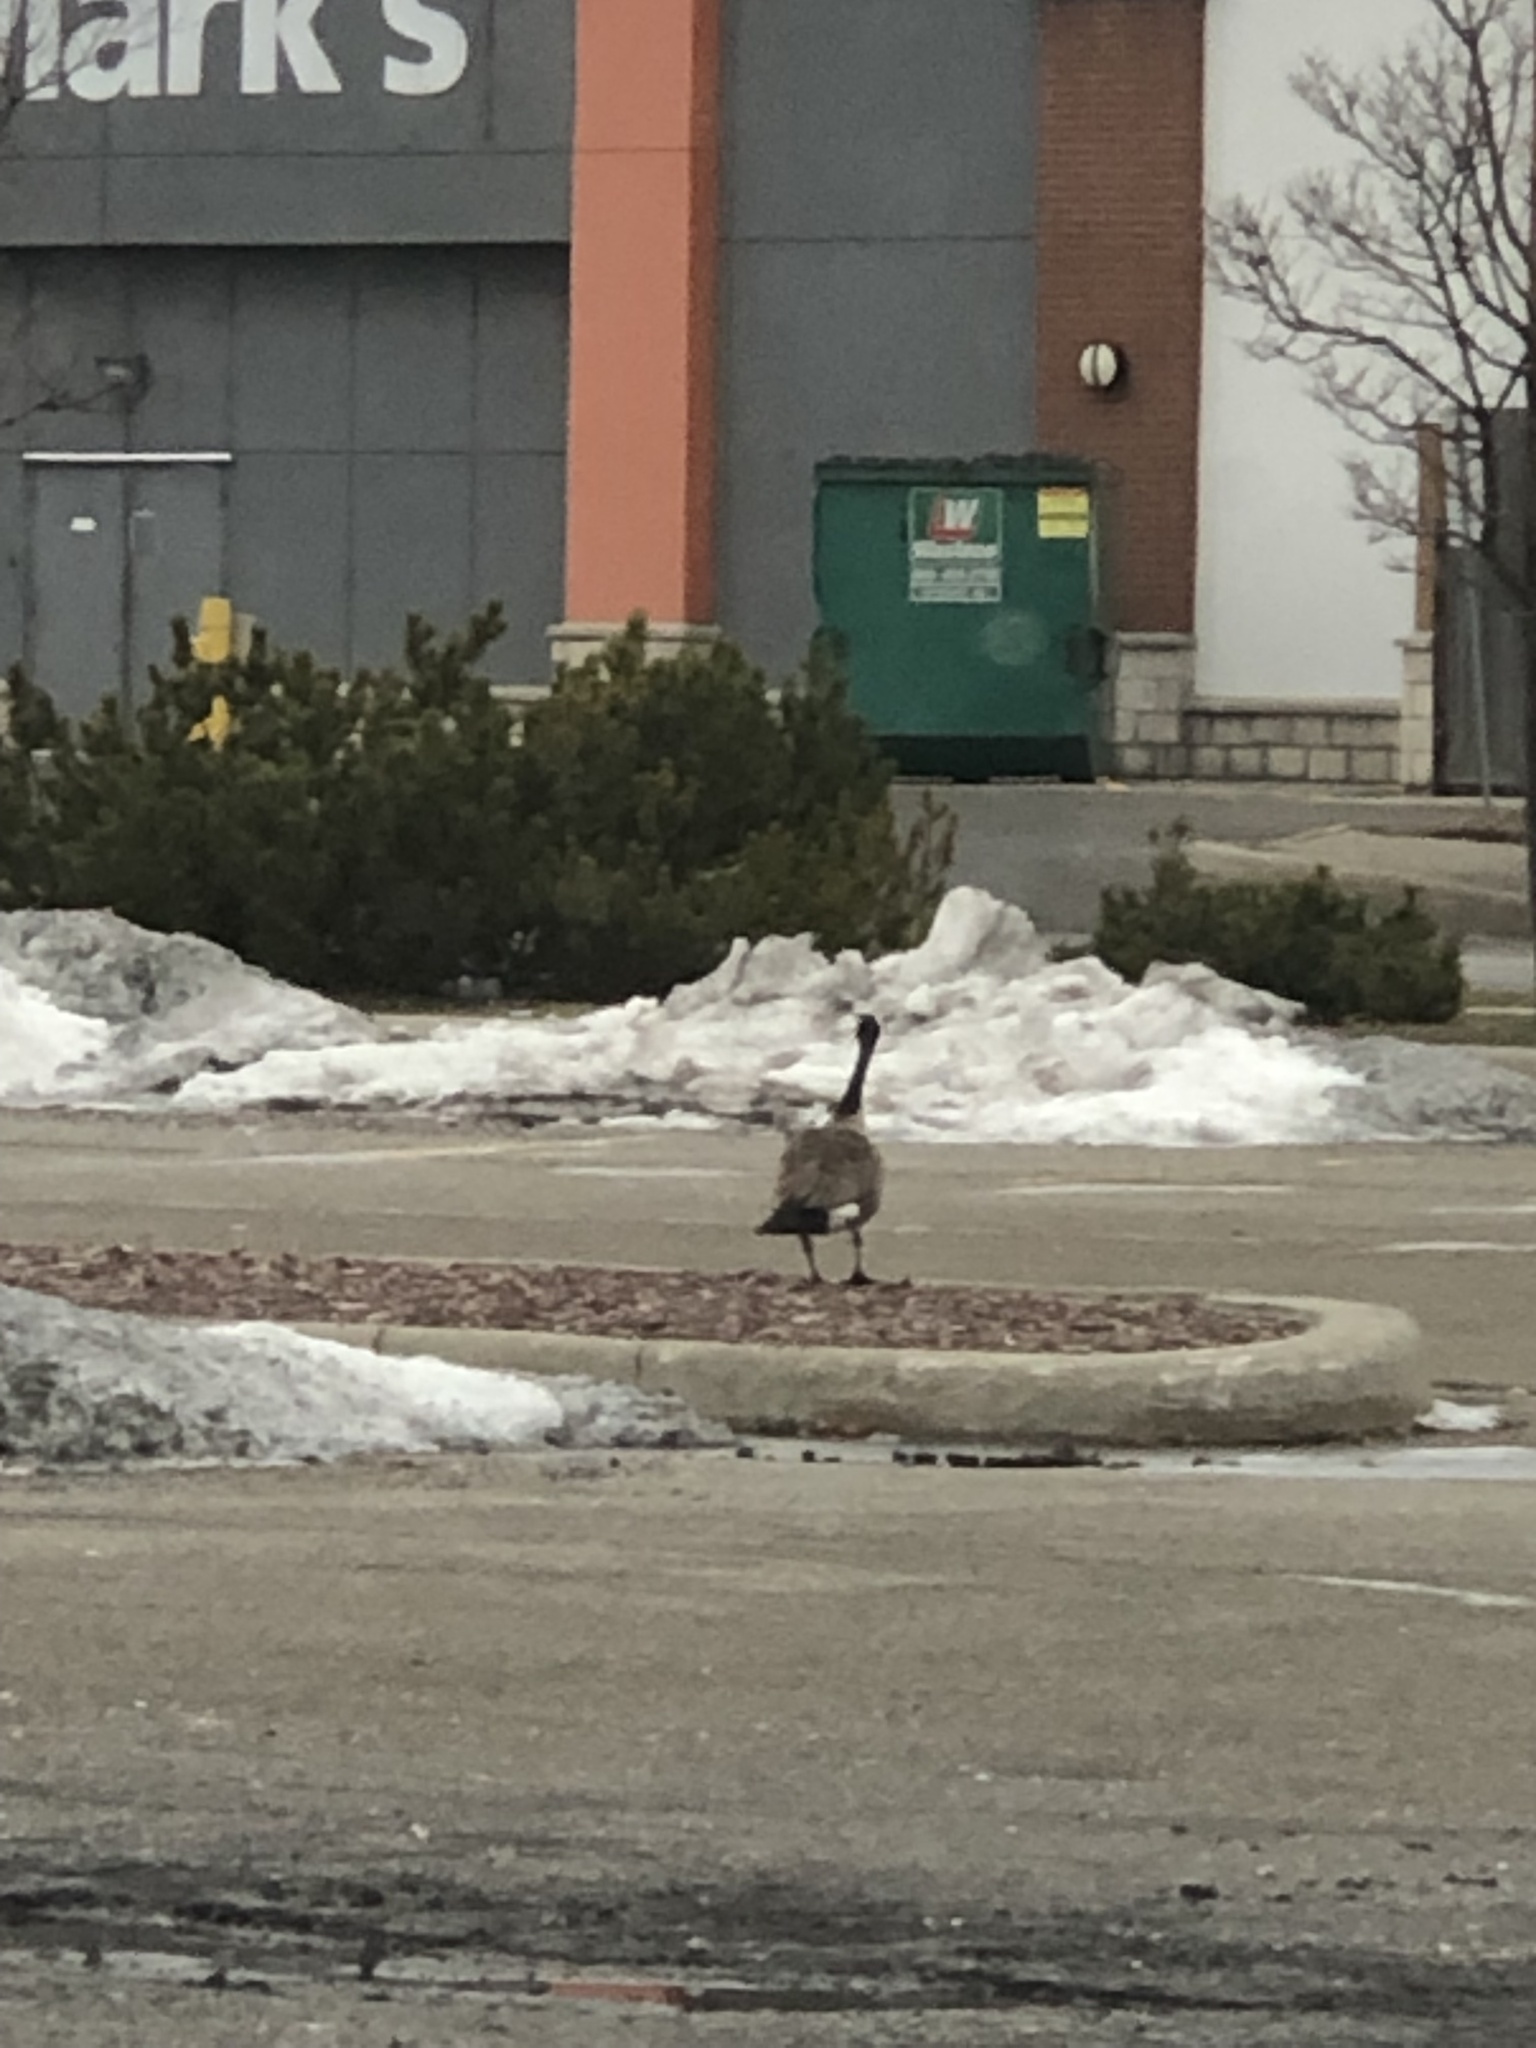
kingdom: Animalia
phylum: Chordata
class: Aves
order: Anseriformes
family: Anatidae
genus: Branta
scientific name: Branta canadensis
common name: Canada goose
